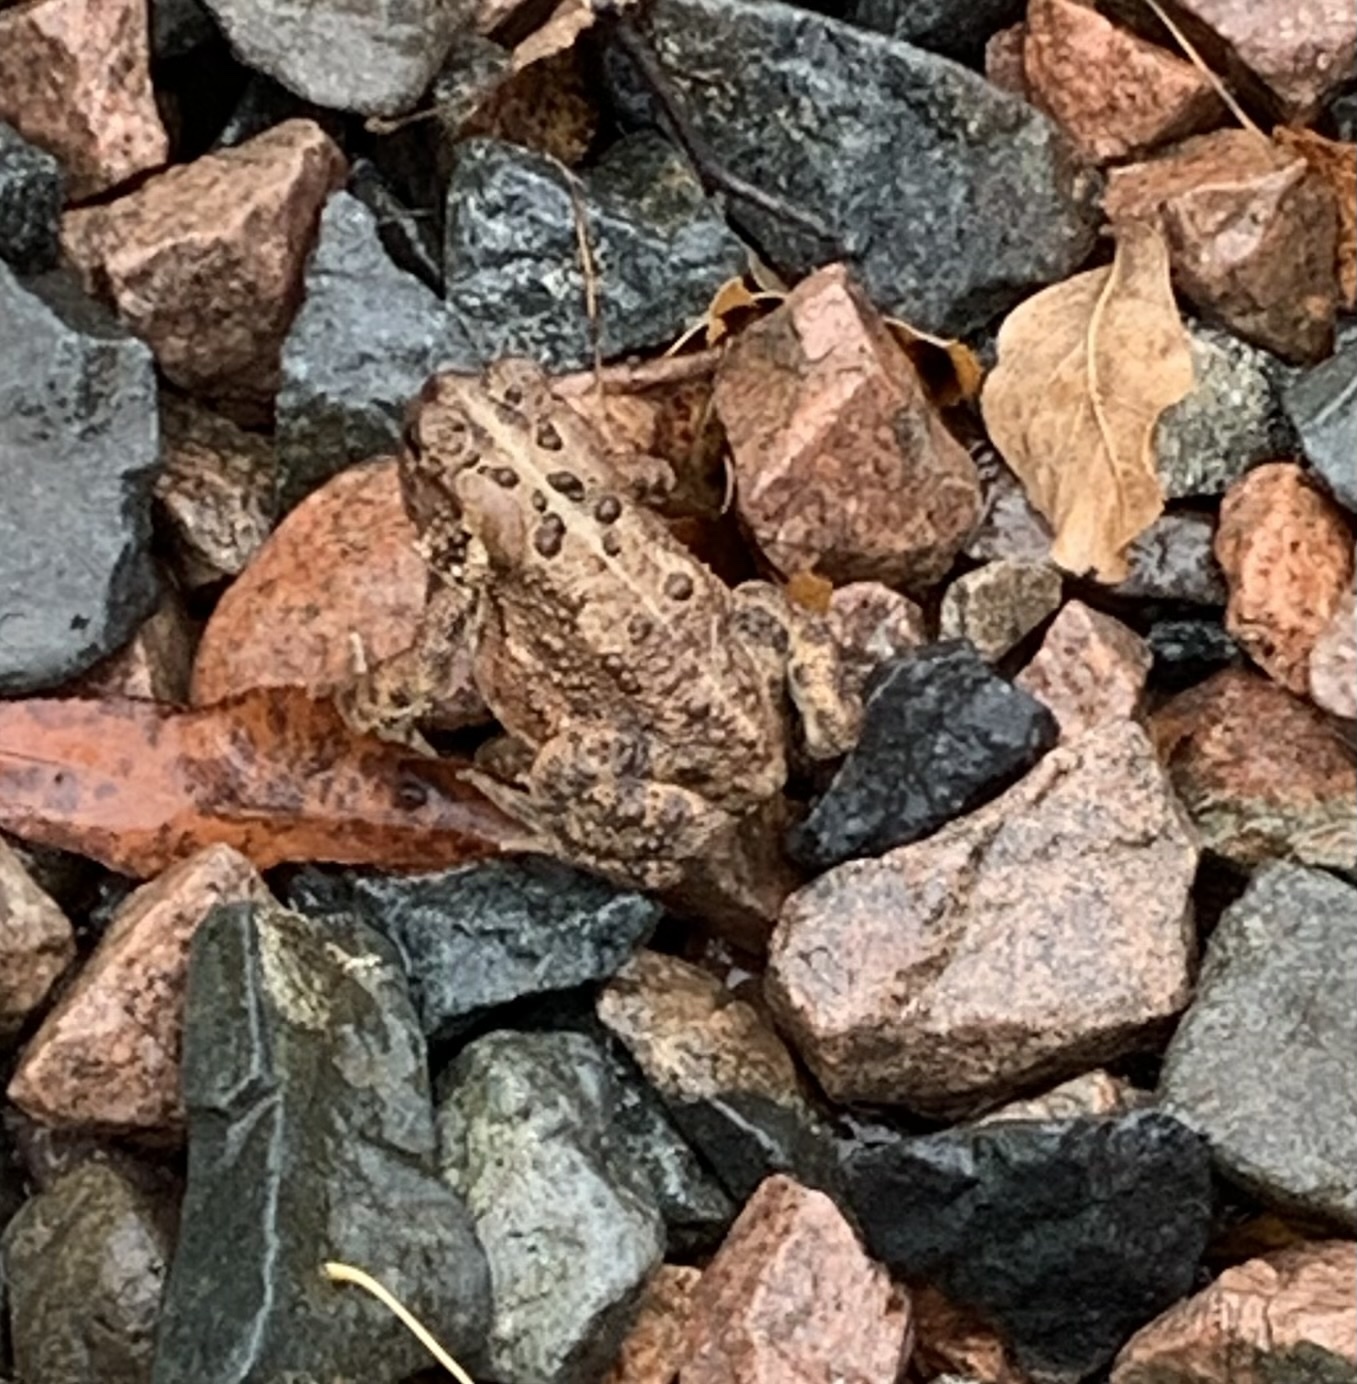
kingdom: Animalia
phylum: Chordata
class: Amphibia
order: Anura
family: Bufonidae
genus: Anaxyrus
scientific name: Anaxyrus americanus
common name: American toad
